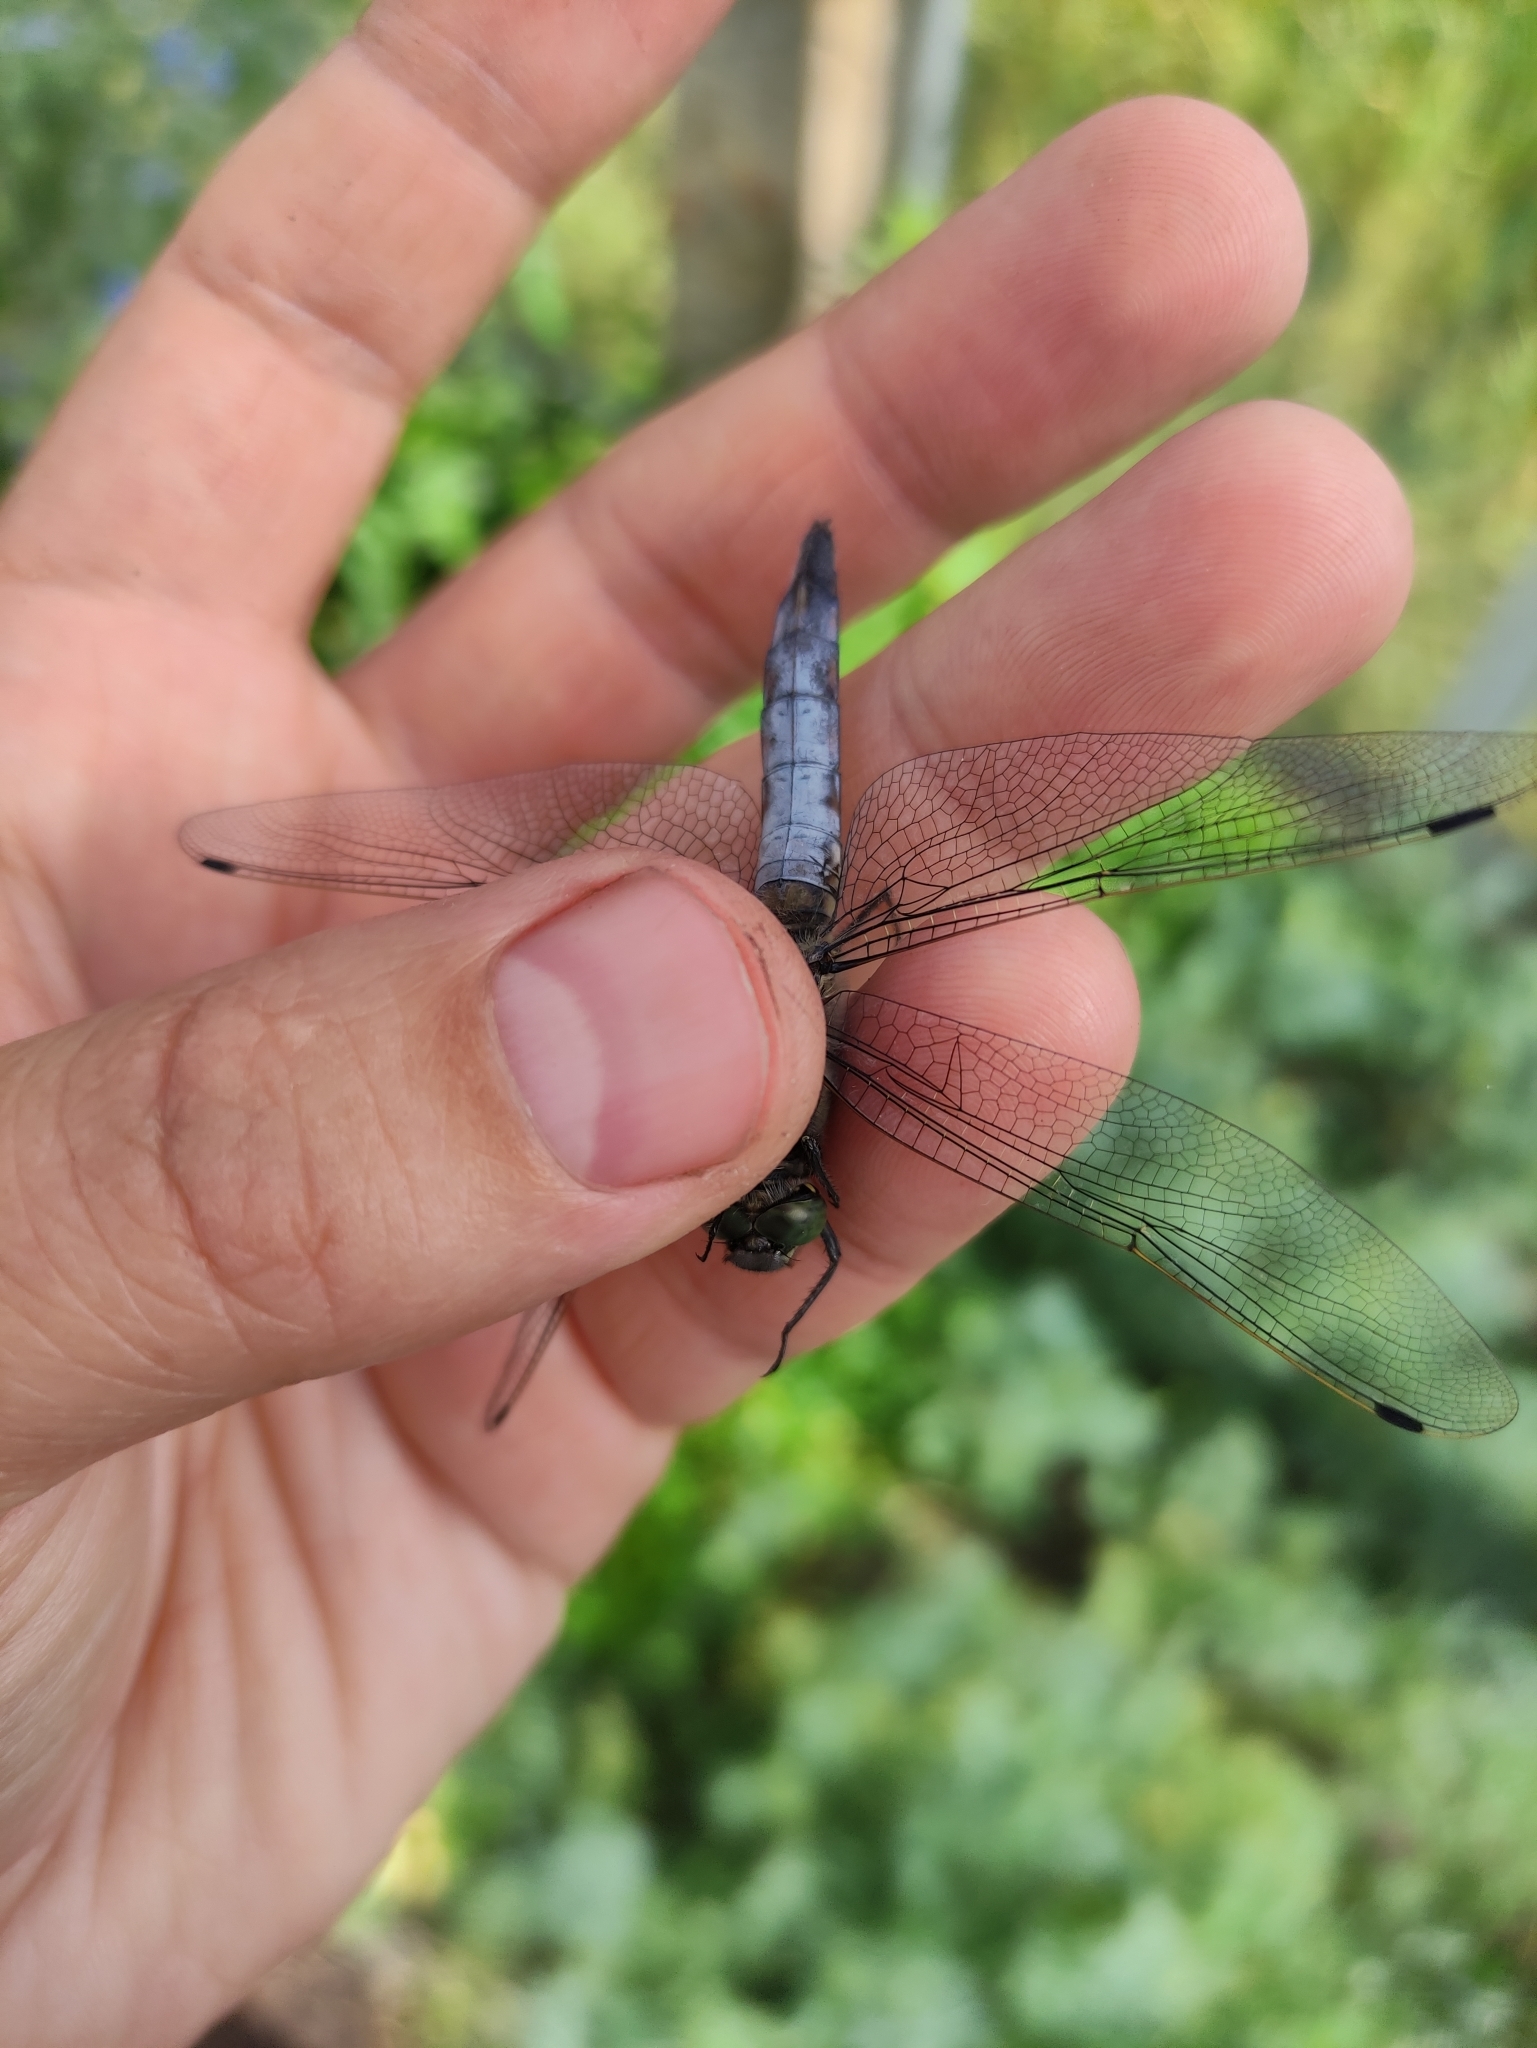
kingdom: Animalia
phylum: Arthropoda
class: Insecta
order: Odonata
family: Libellulidae
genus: Orthetrum
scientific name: Orthetrum cancellatum
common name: Black-tailed skimmer
